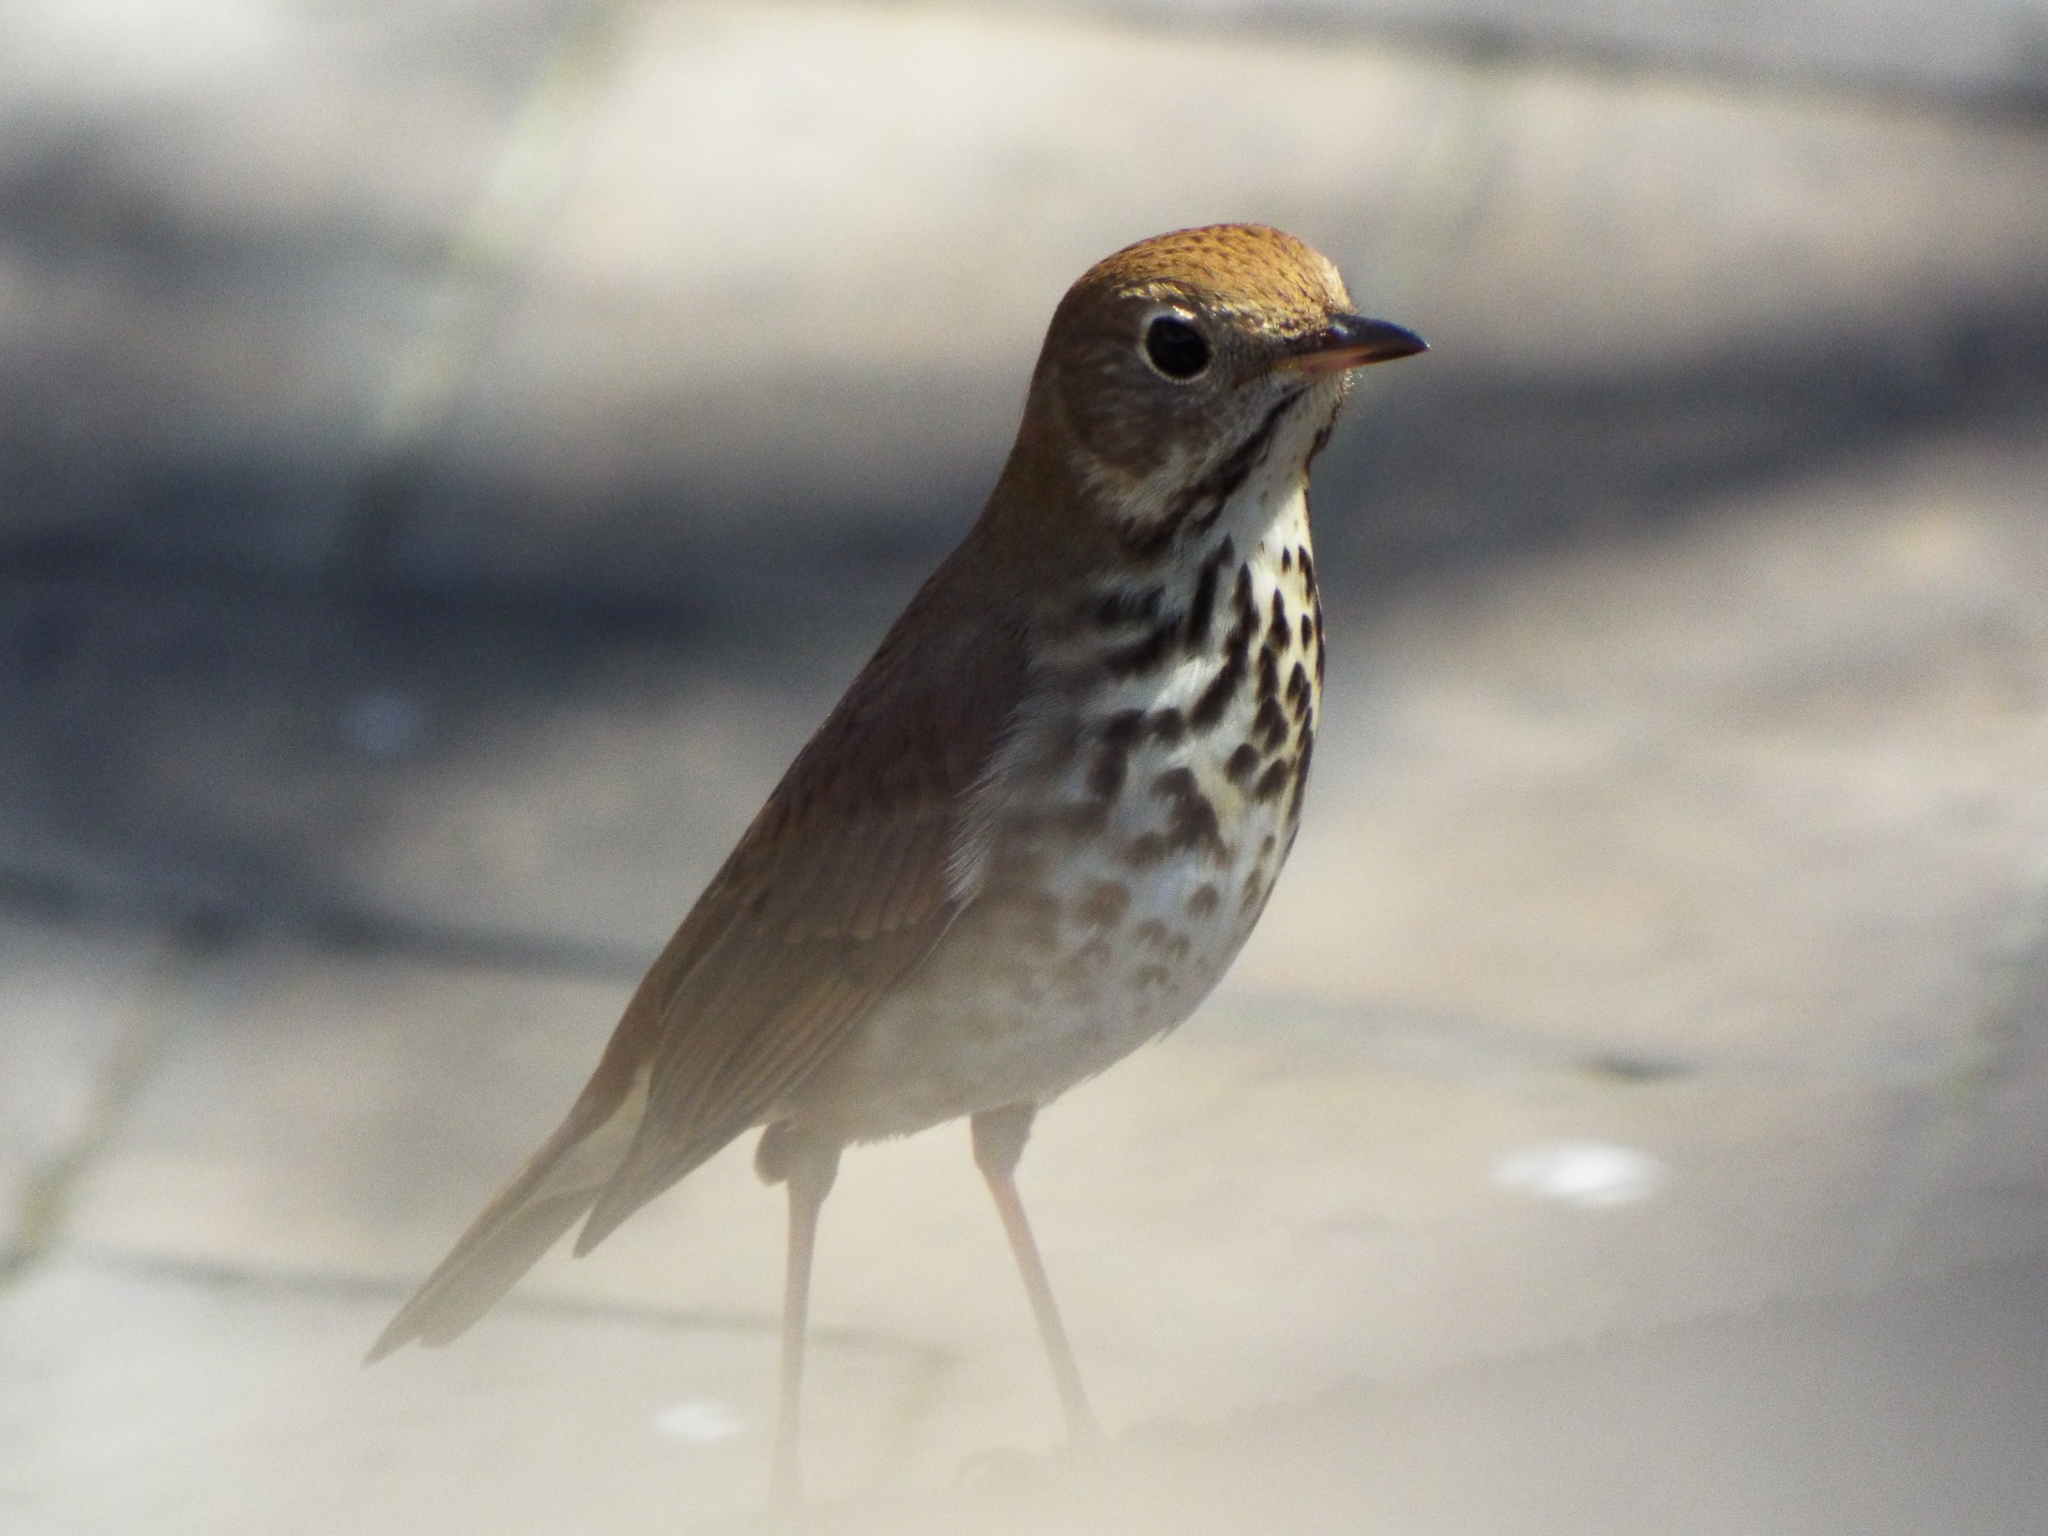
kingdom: Animalia
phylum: Chordata
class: Aves
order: Passeriformes
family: Turdidae
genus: Catharus
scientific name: Catharus guttatus
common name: Hermit thrush
